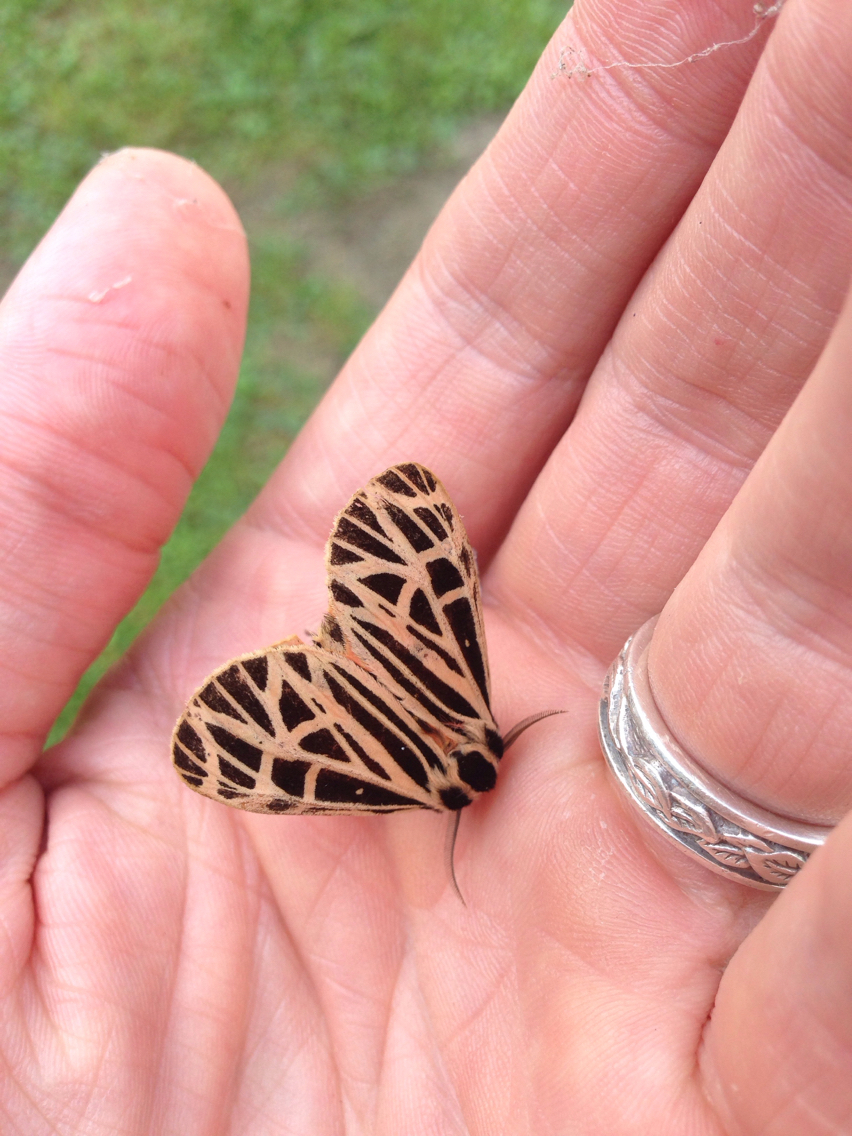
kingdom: Animalia
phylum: Arthropoda
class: Insecta
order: Lepidoptera
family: Erebidae
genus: Grammia
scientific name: Grammia virgo
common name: Virgin tiger moth
